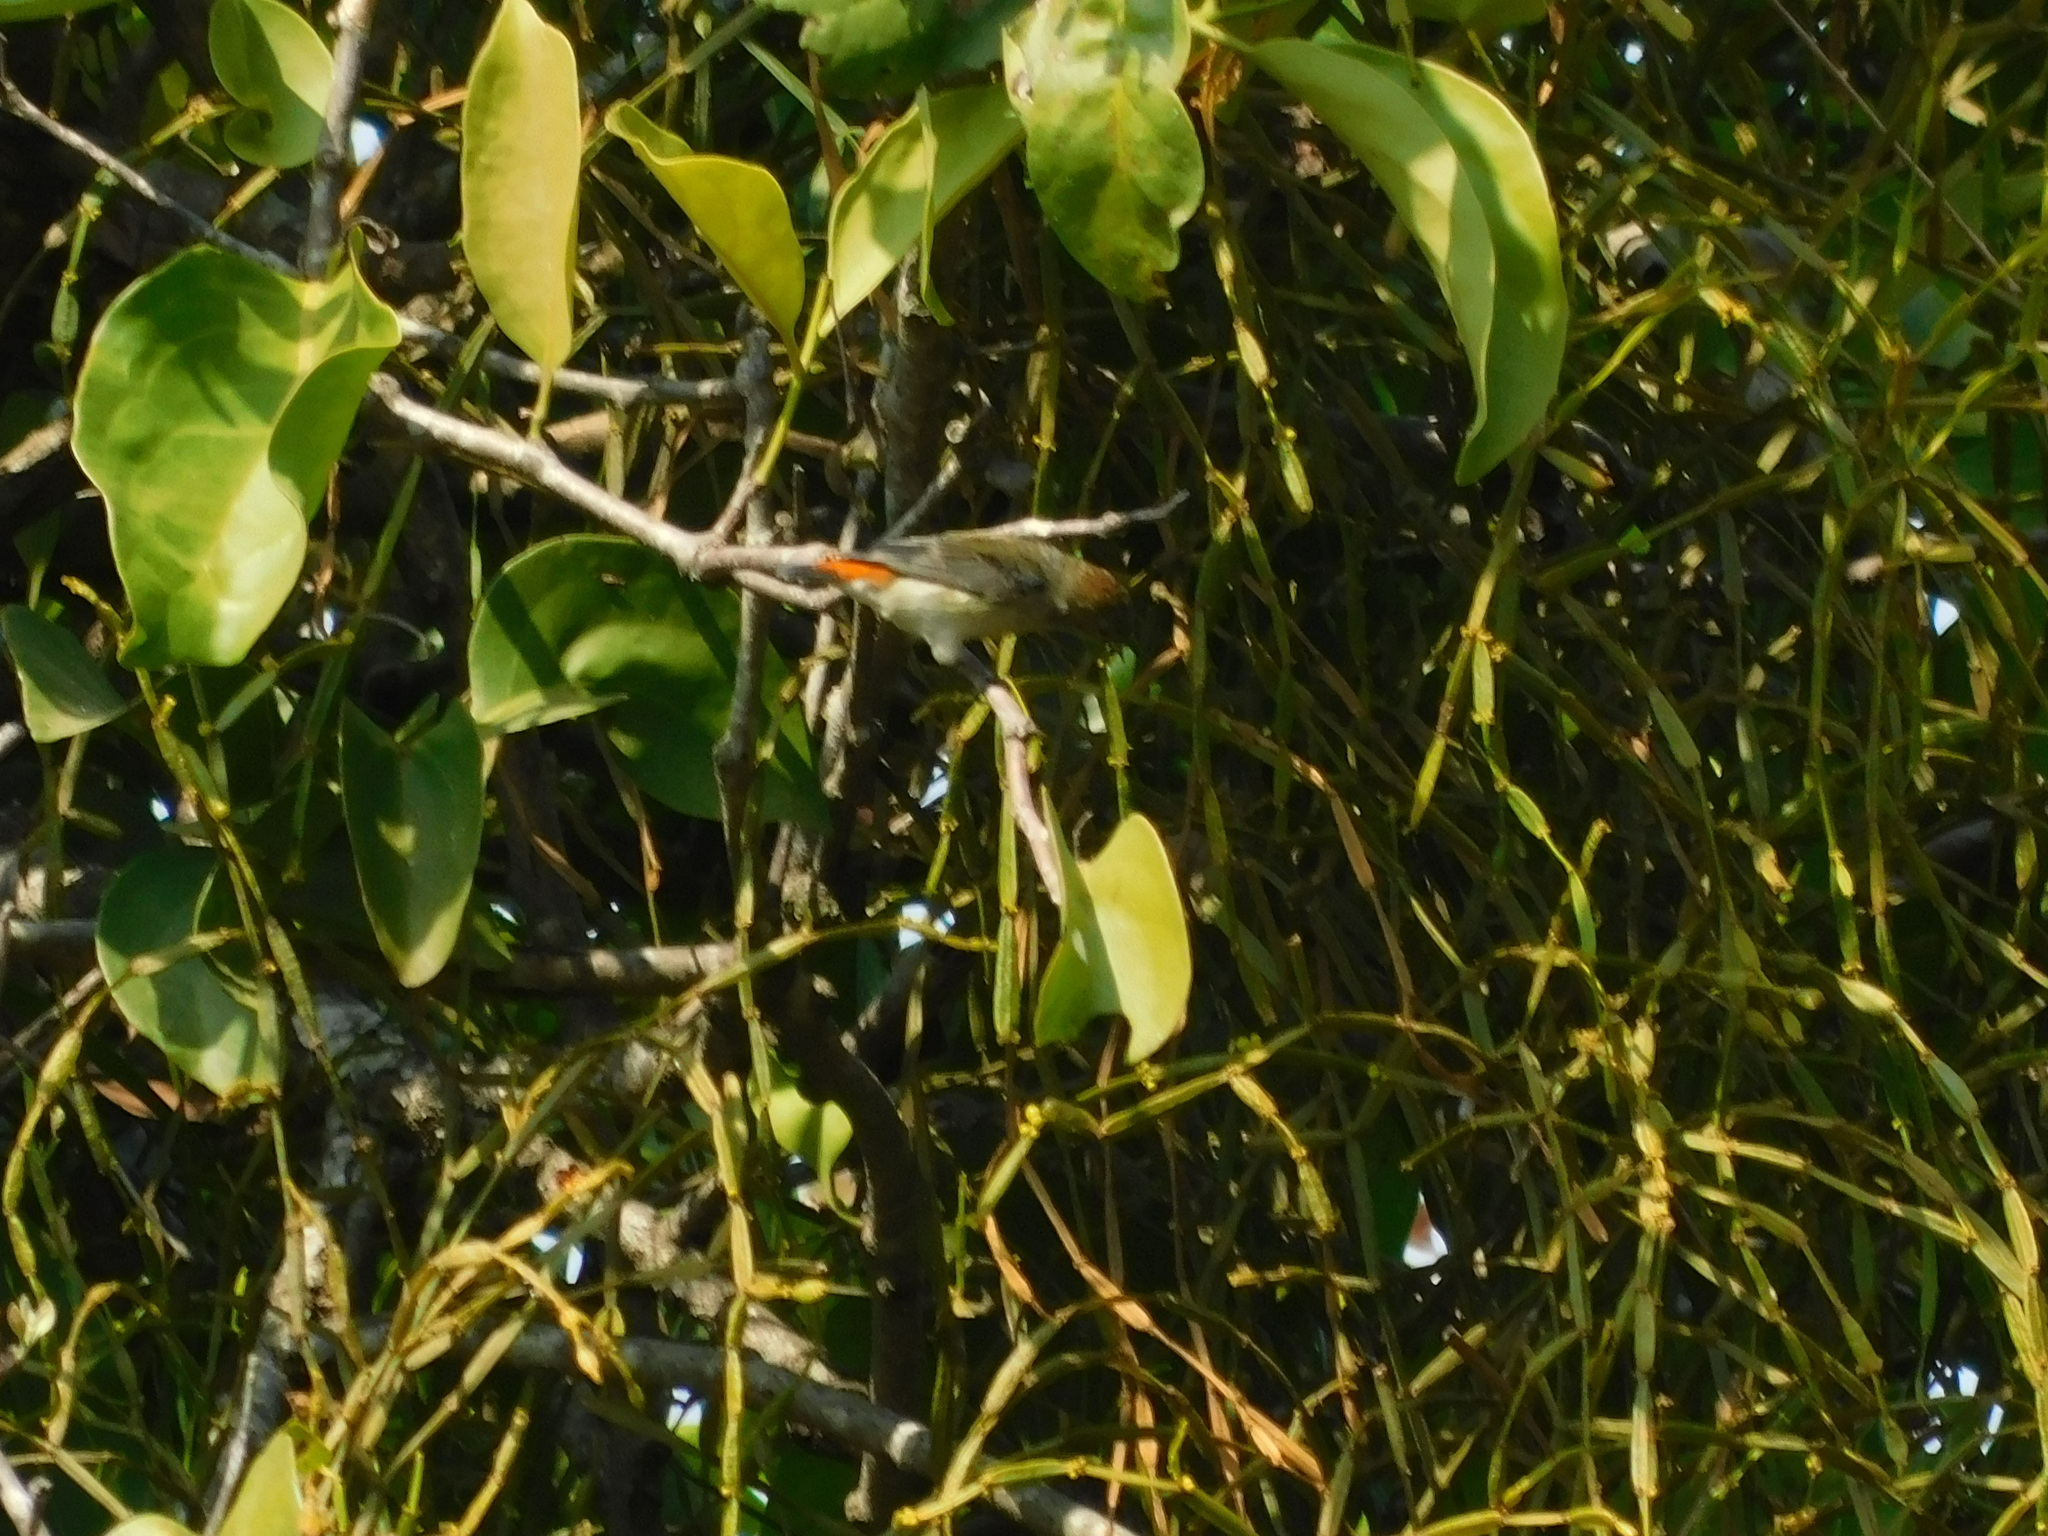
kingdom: Animalia
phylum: Chordata
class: Aves
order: Passeriformes
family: Dicaeidae
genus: Dicaeum
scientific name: Dicaeum trochileum
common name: Scarlet-headed flowerpecker
